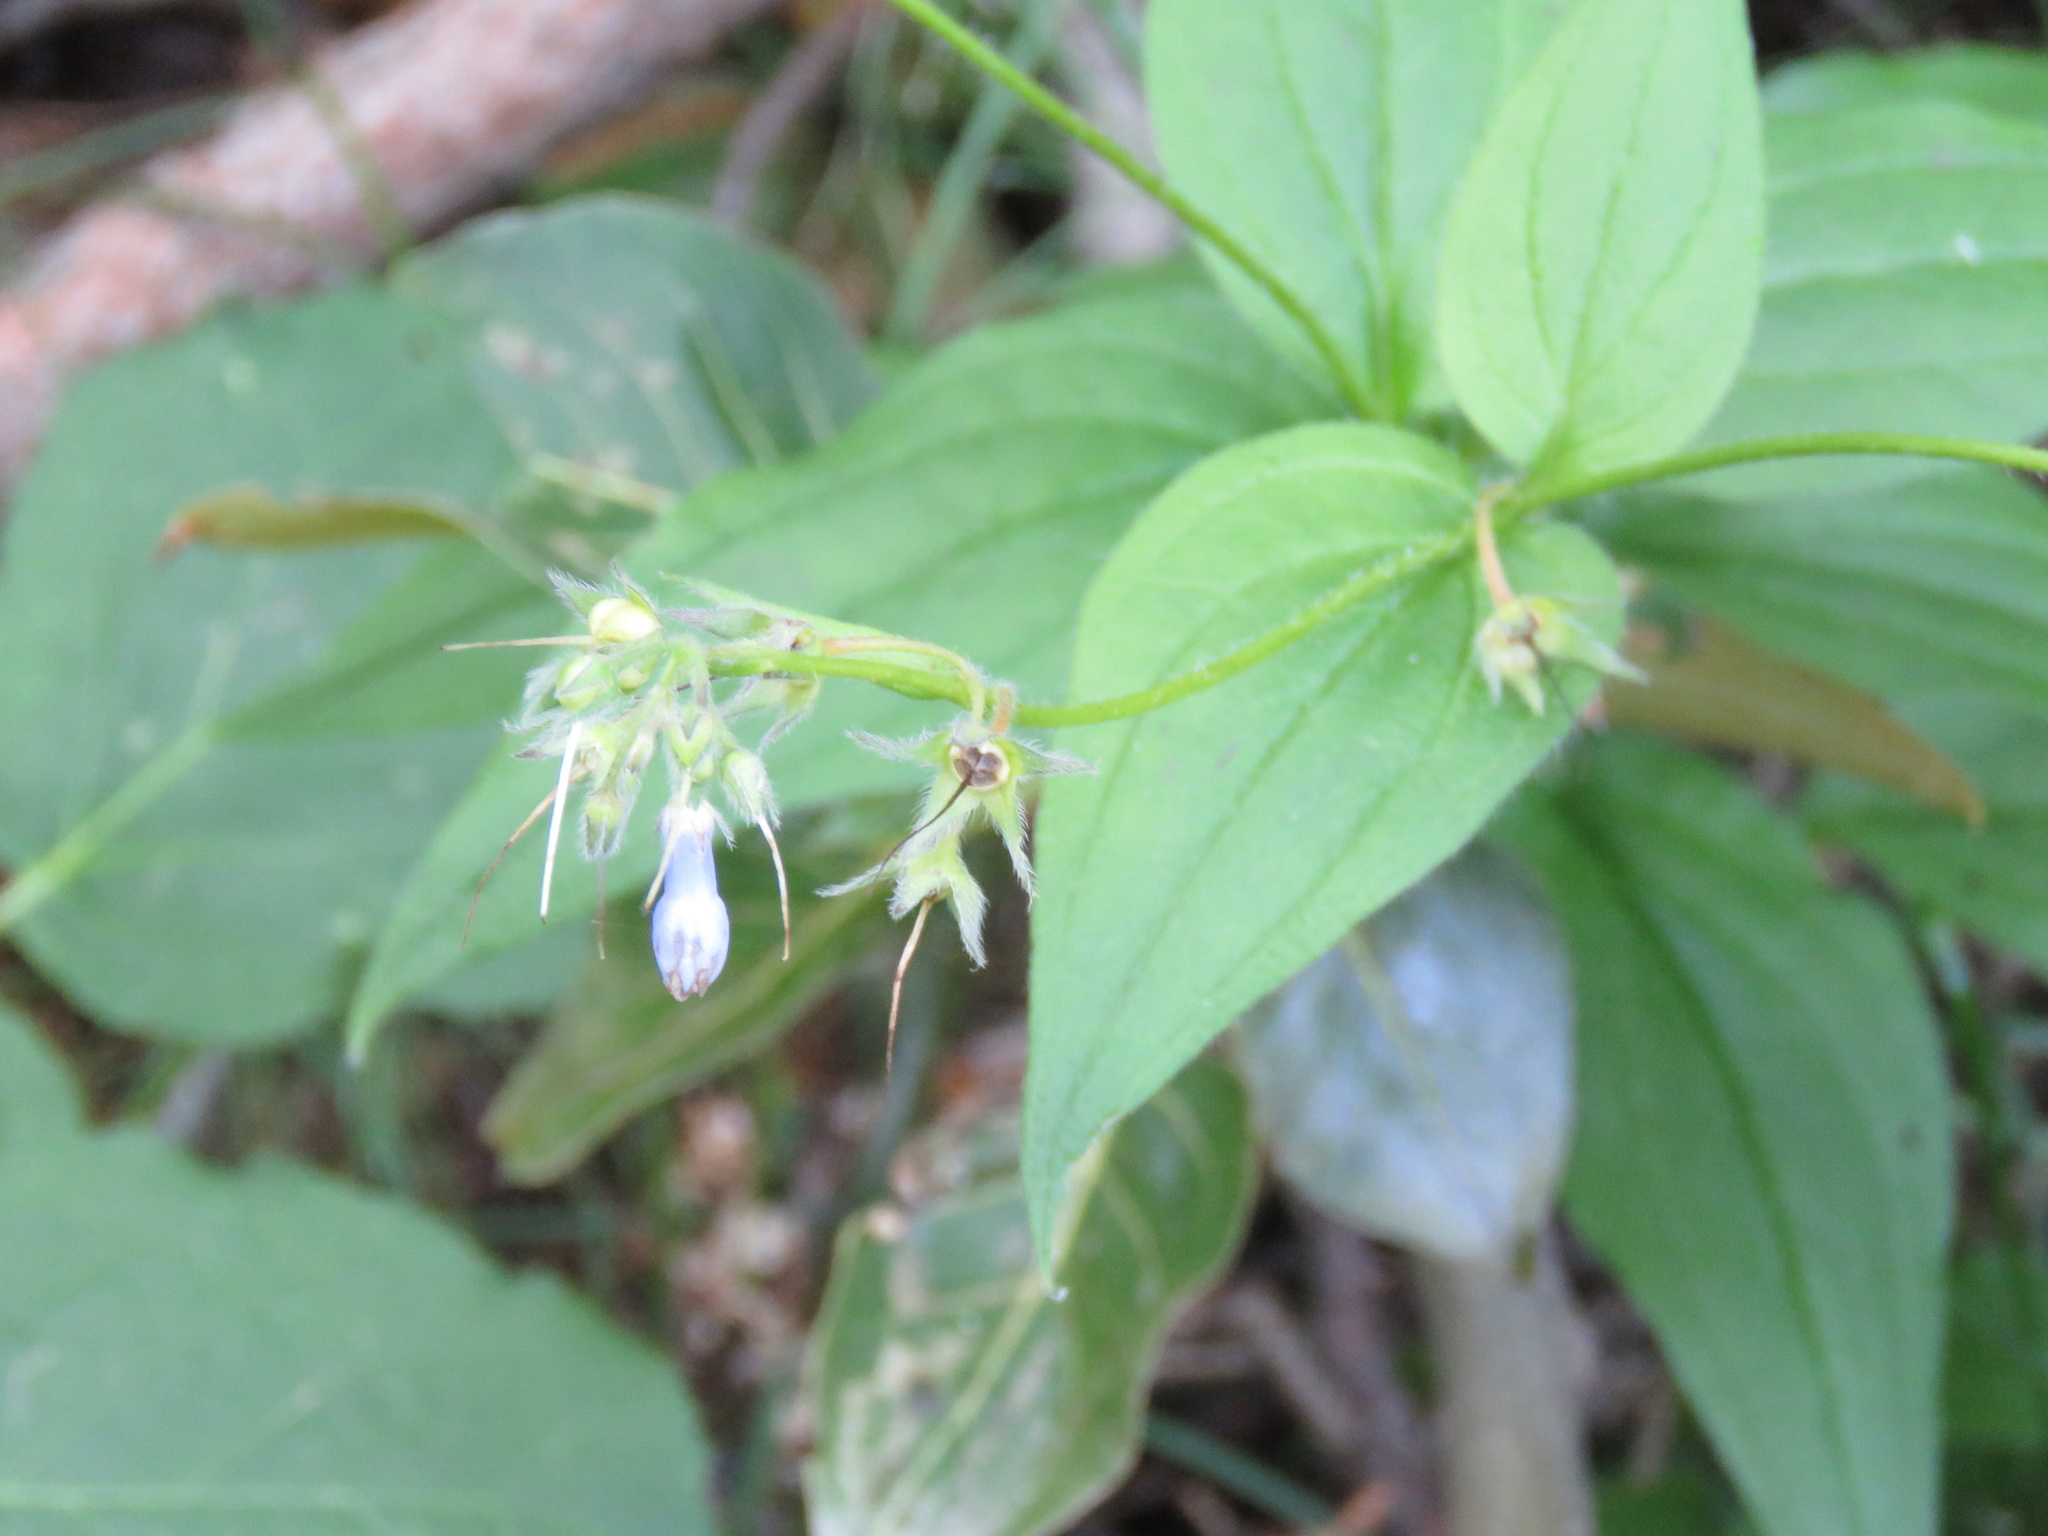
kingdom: Plantae
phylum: Tracheophyta
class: Magnoliopsida
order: Boraginales
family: Boraginaceae
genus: Mertensia
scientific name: Mertensia paniculata
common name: Panicled bluebells
